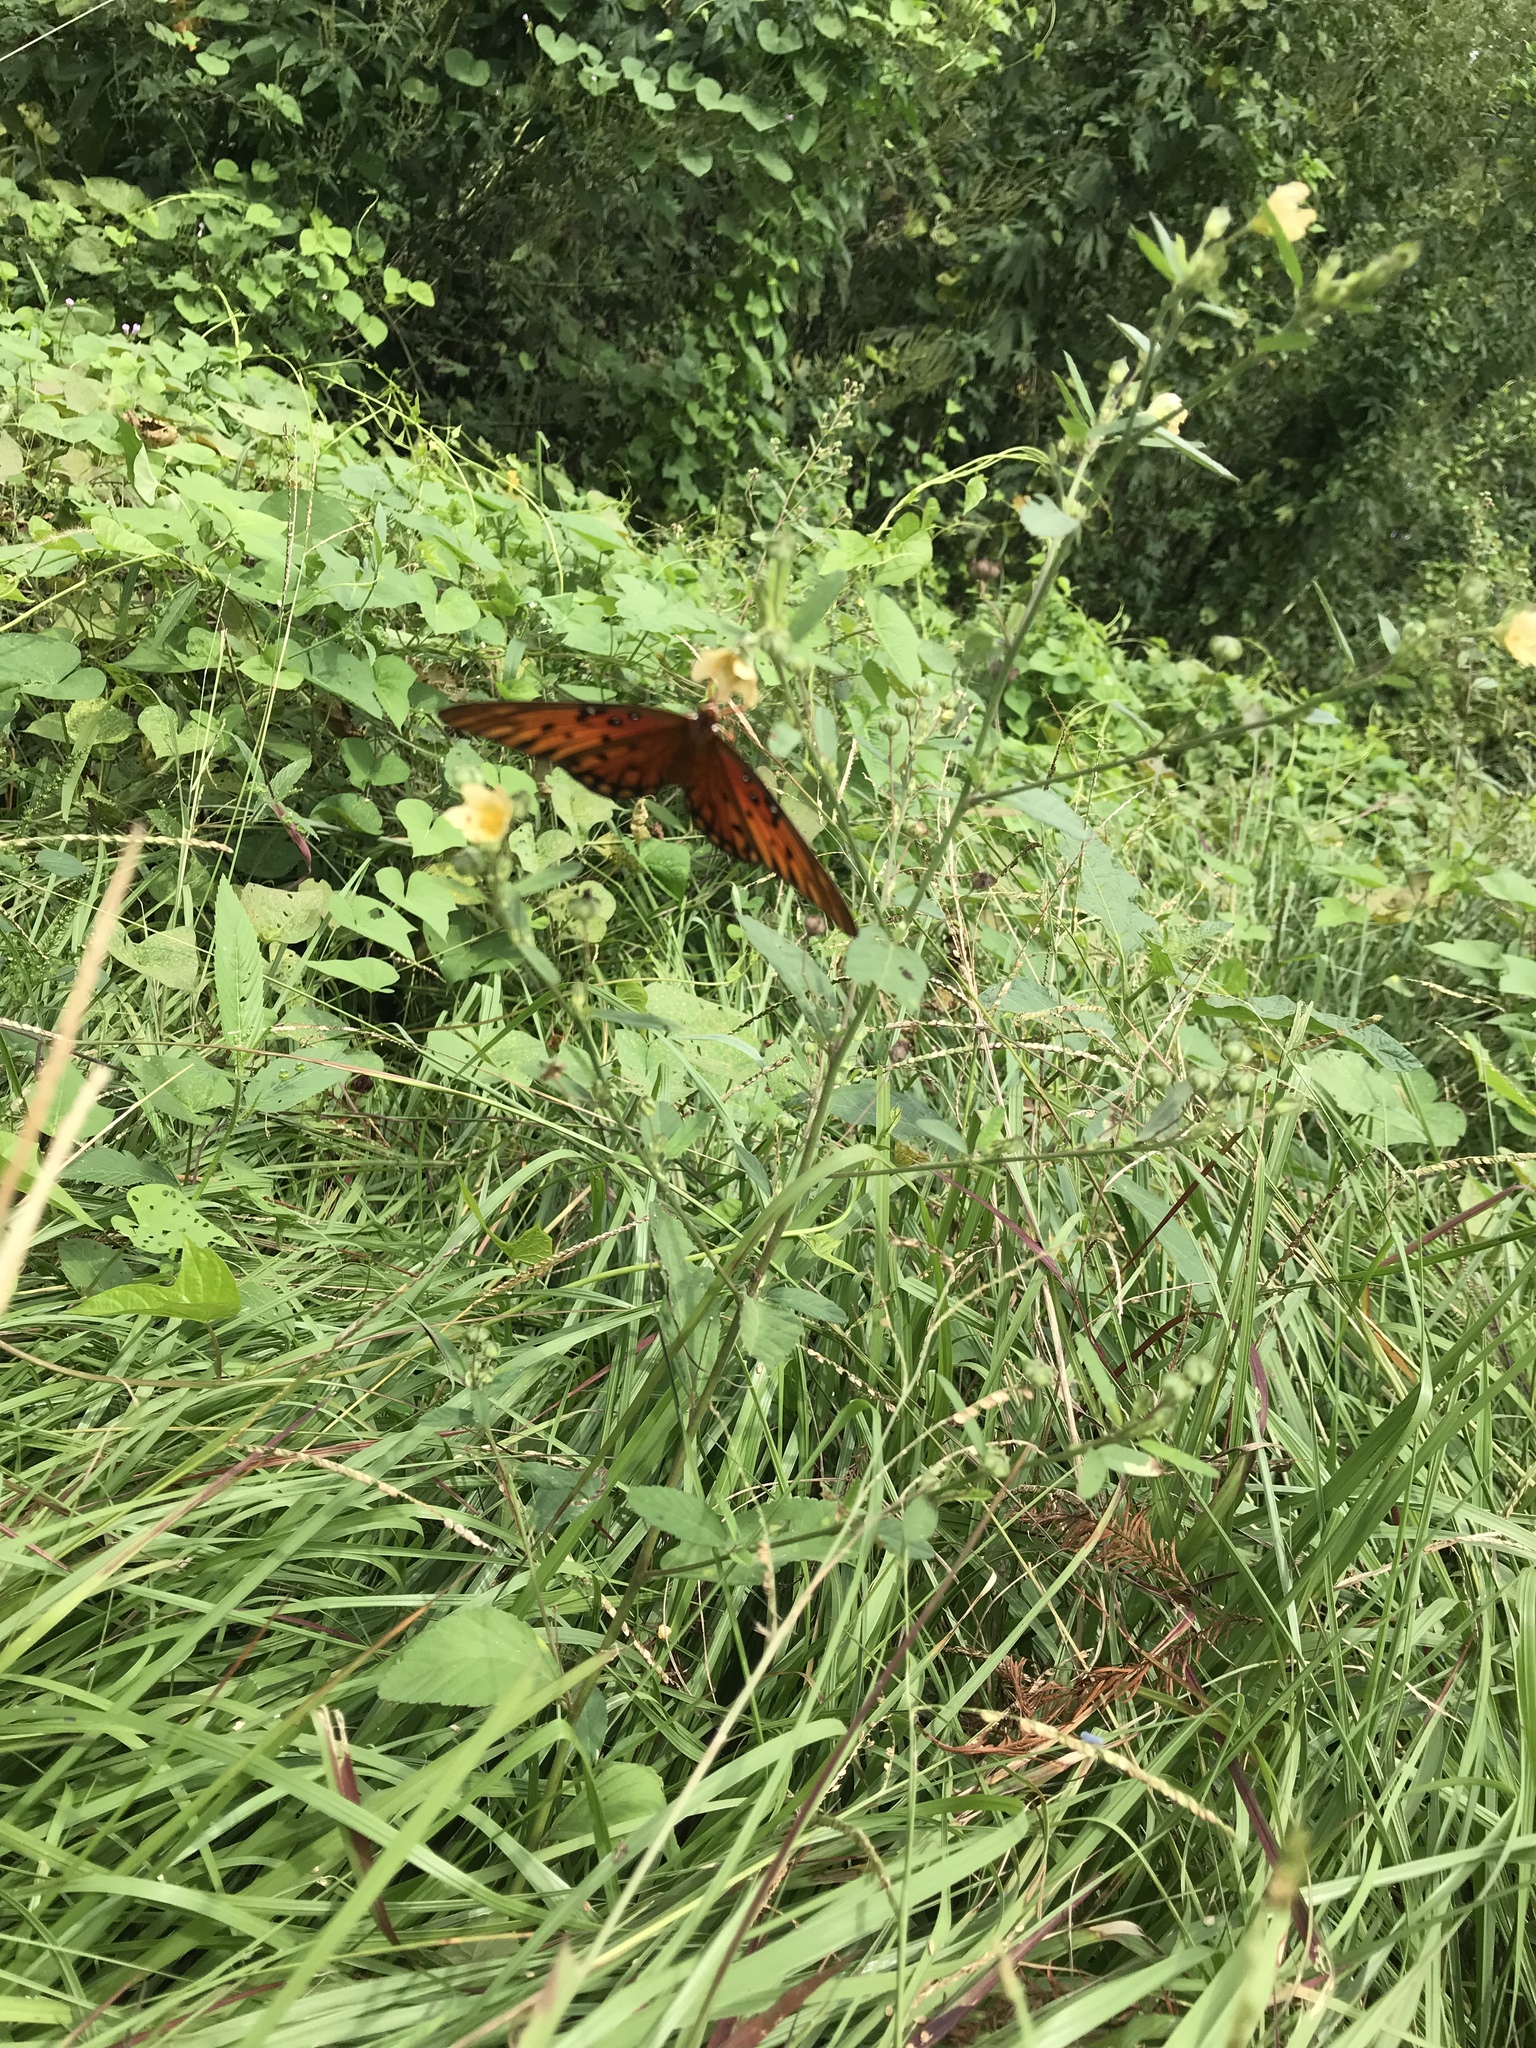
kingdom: Animalia
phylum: Arthropoda
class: Insecta
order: Lepidoptera
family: Nymphalidae
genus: Dione
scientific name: Dione vanillae
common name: Gulf fritillary
